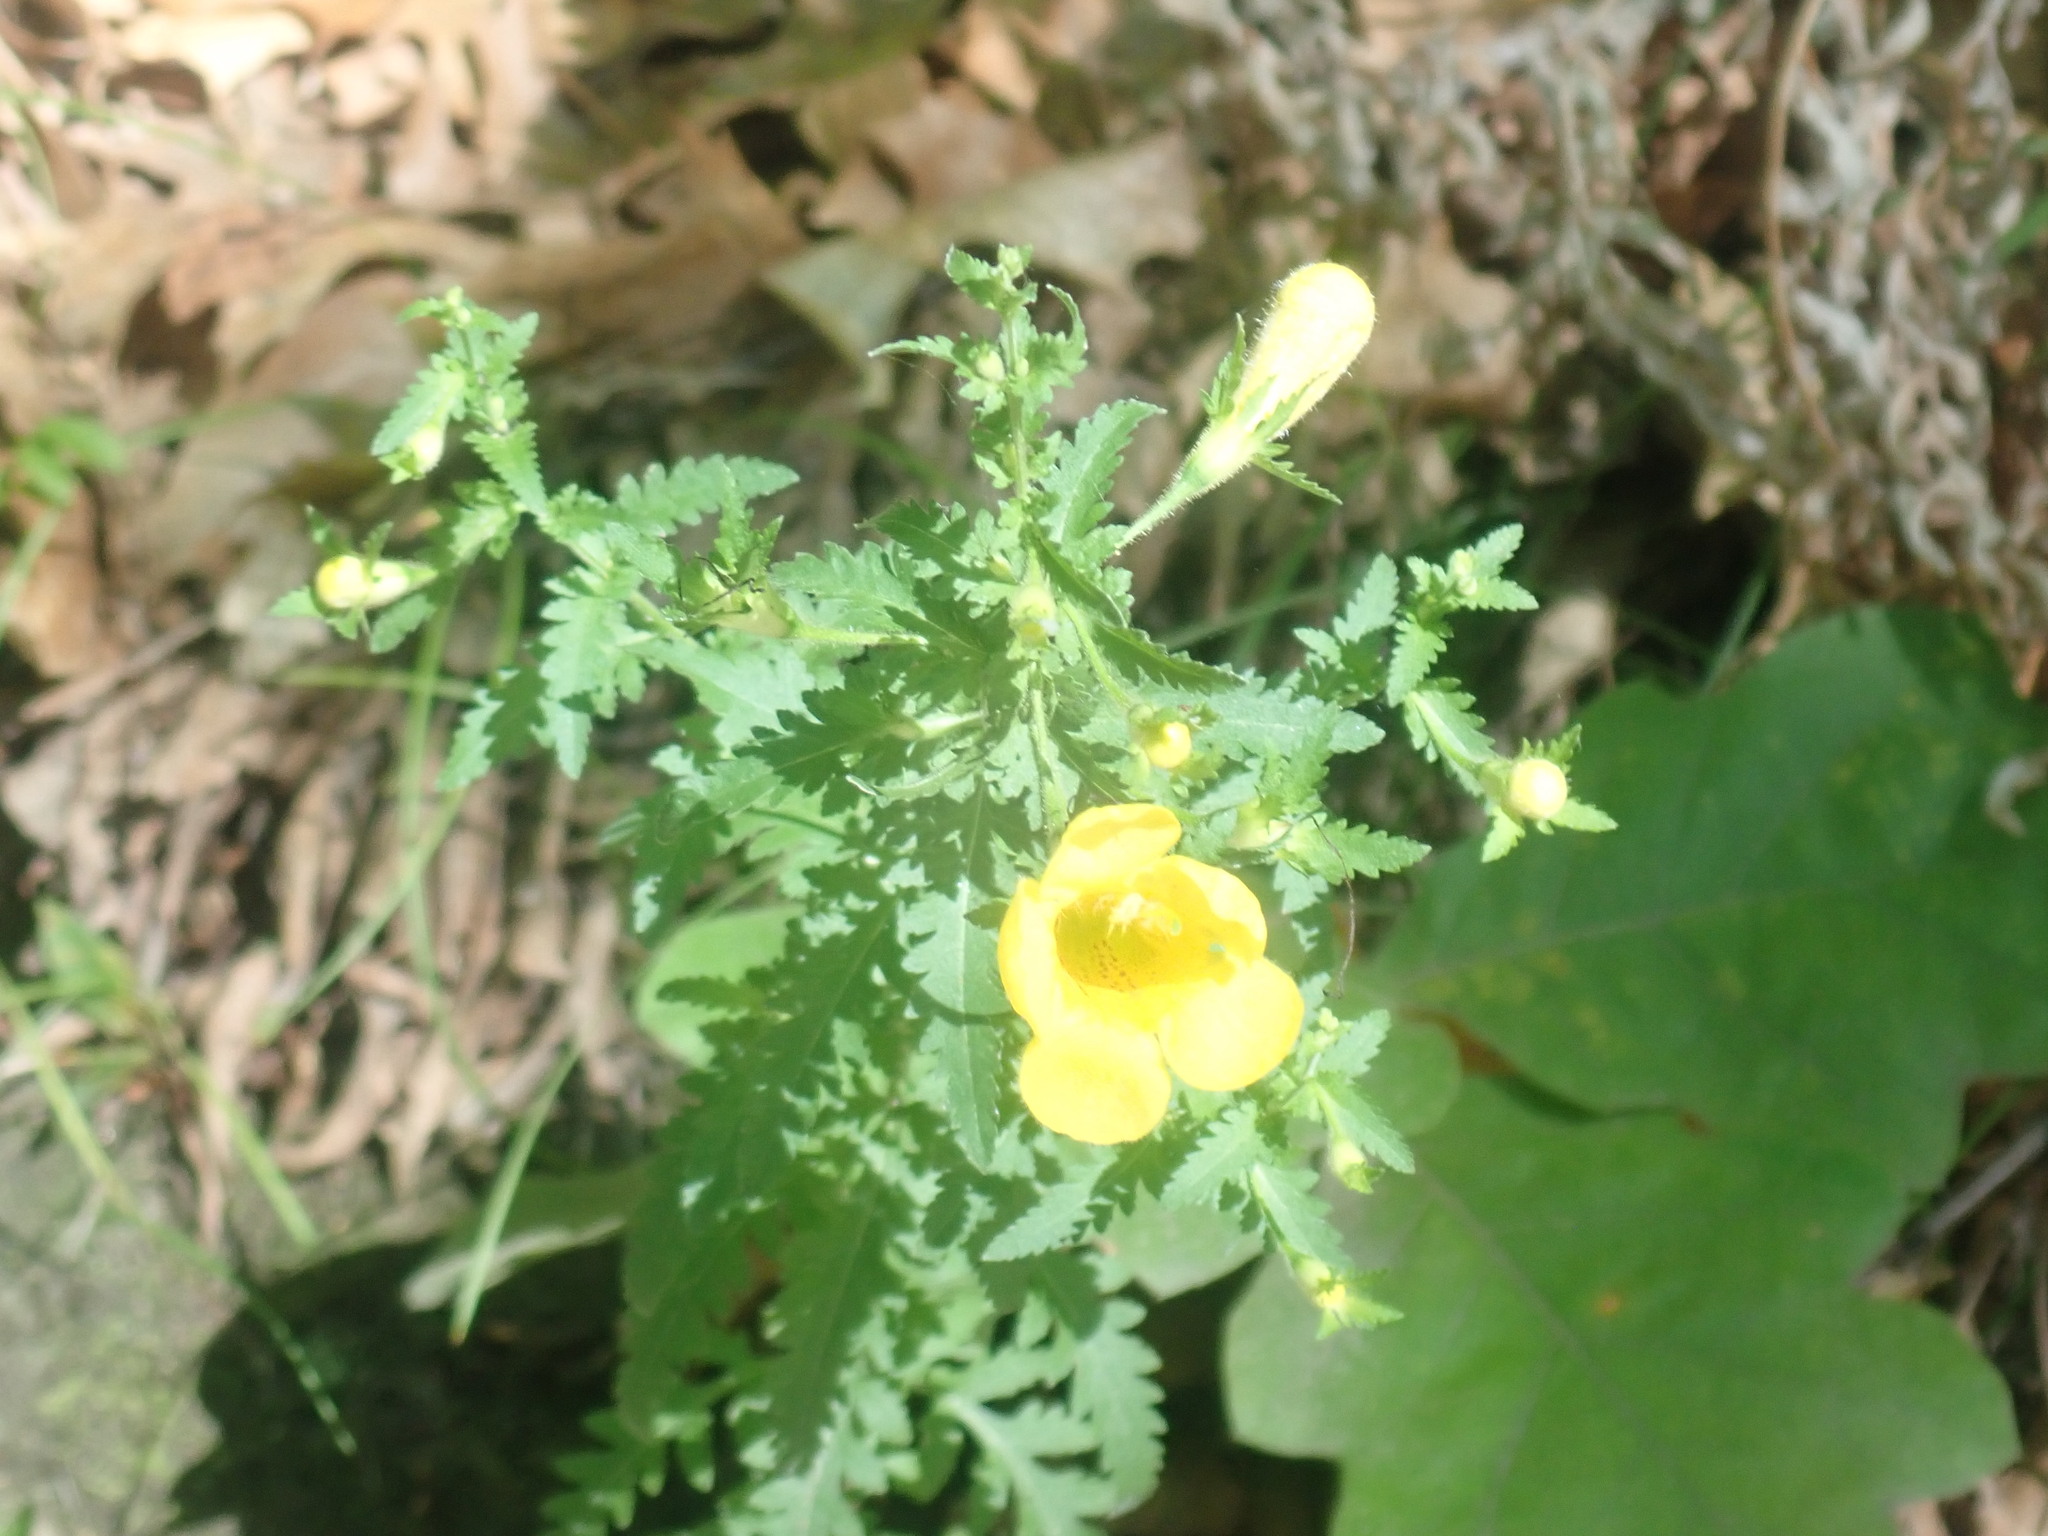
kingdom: Plantae
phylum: Tracheophyta
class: Magnoliopsida
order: Lamiales
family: Orobanchaceae
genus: Aureolaria
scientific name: Aureolaria pedicularia
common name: Annual false foxglove
